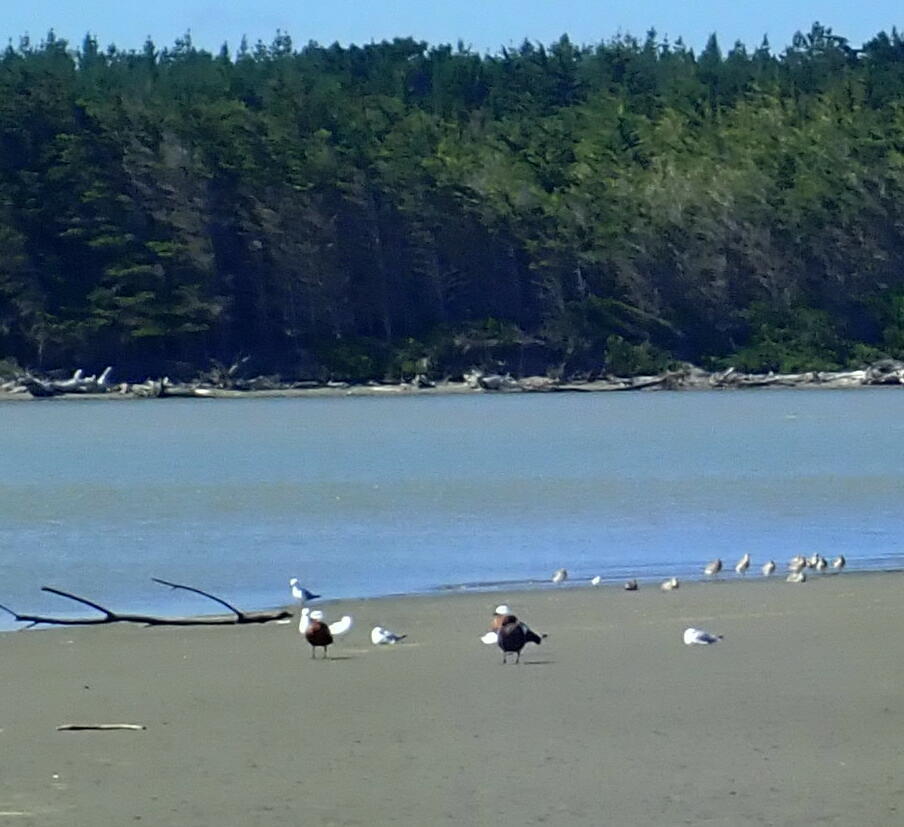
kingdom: Animalia
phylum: Chordata
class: Aves
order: Anseriformes
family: Anatidae
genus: Tadorna
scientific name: Tadorna variegata
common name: Paradise shelduck
